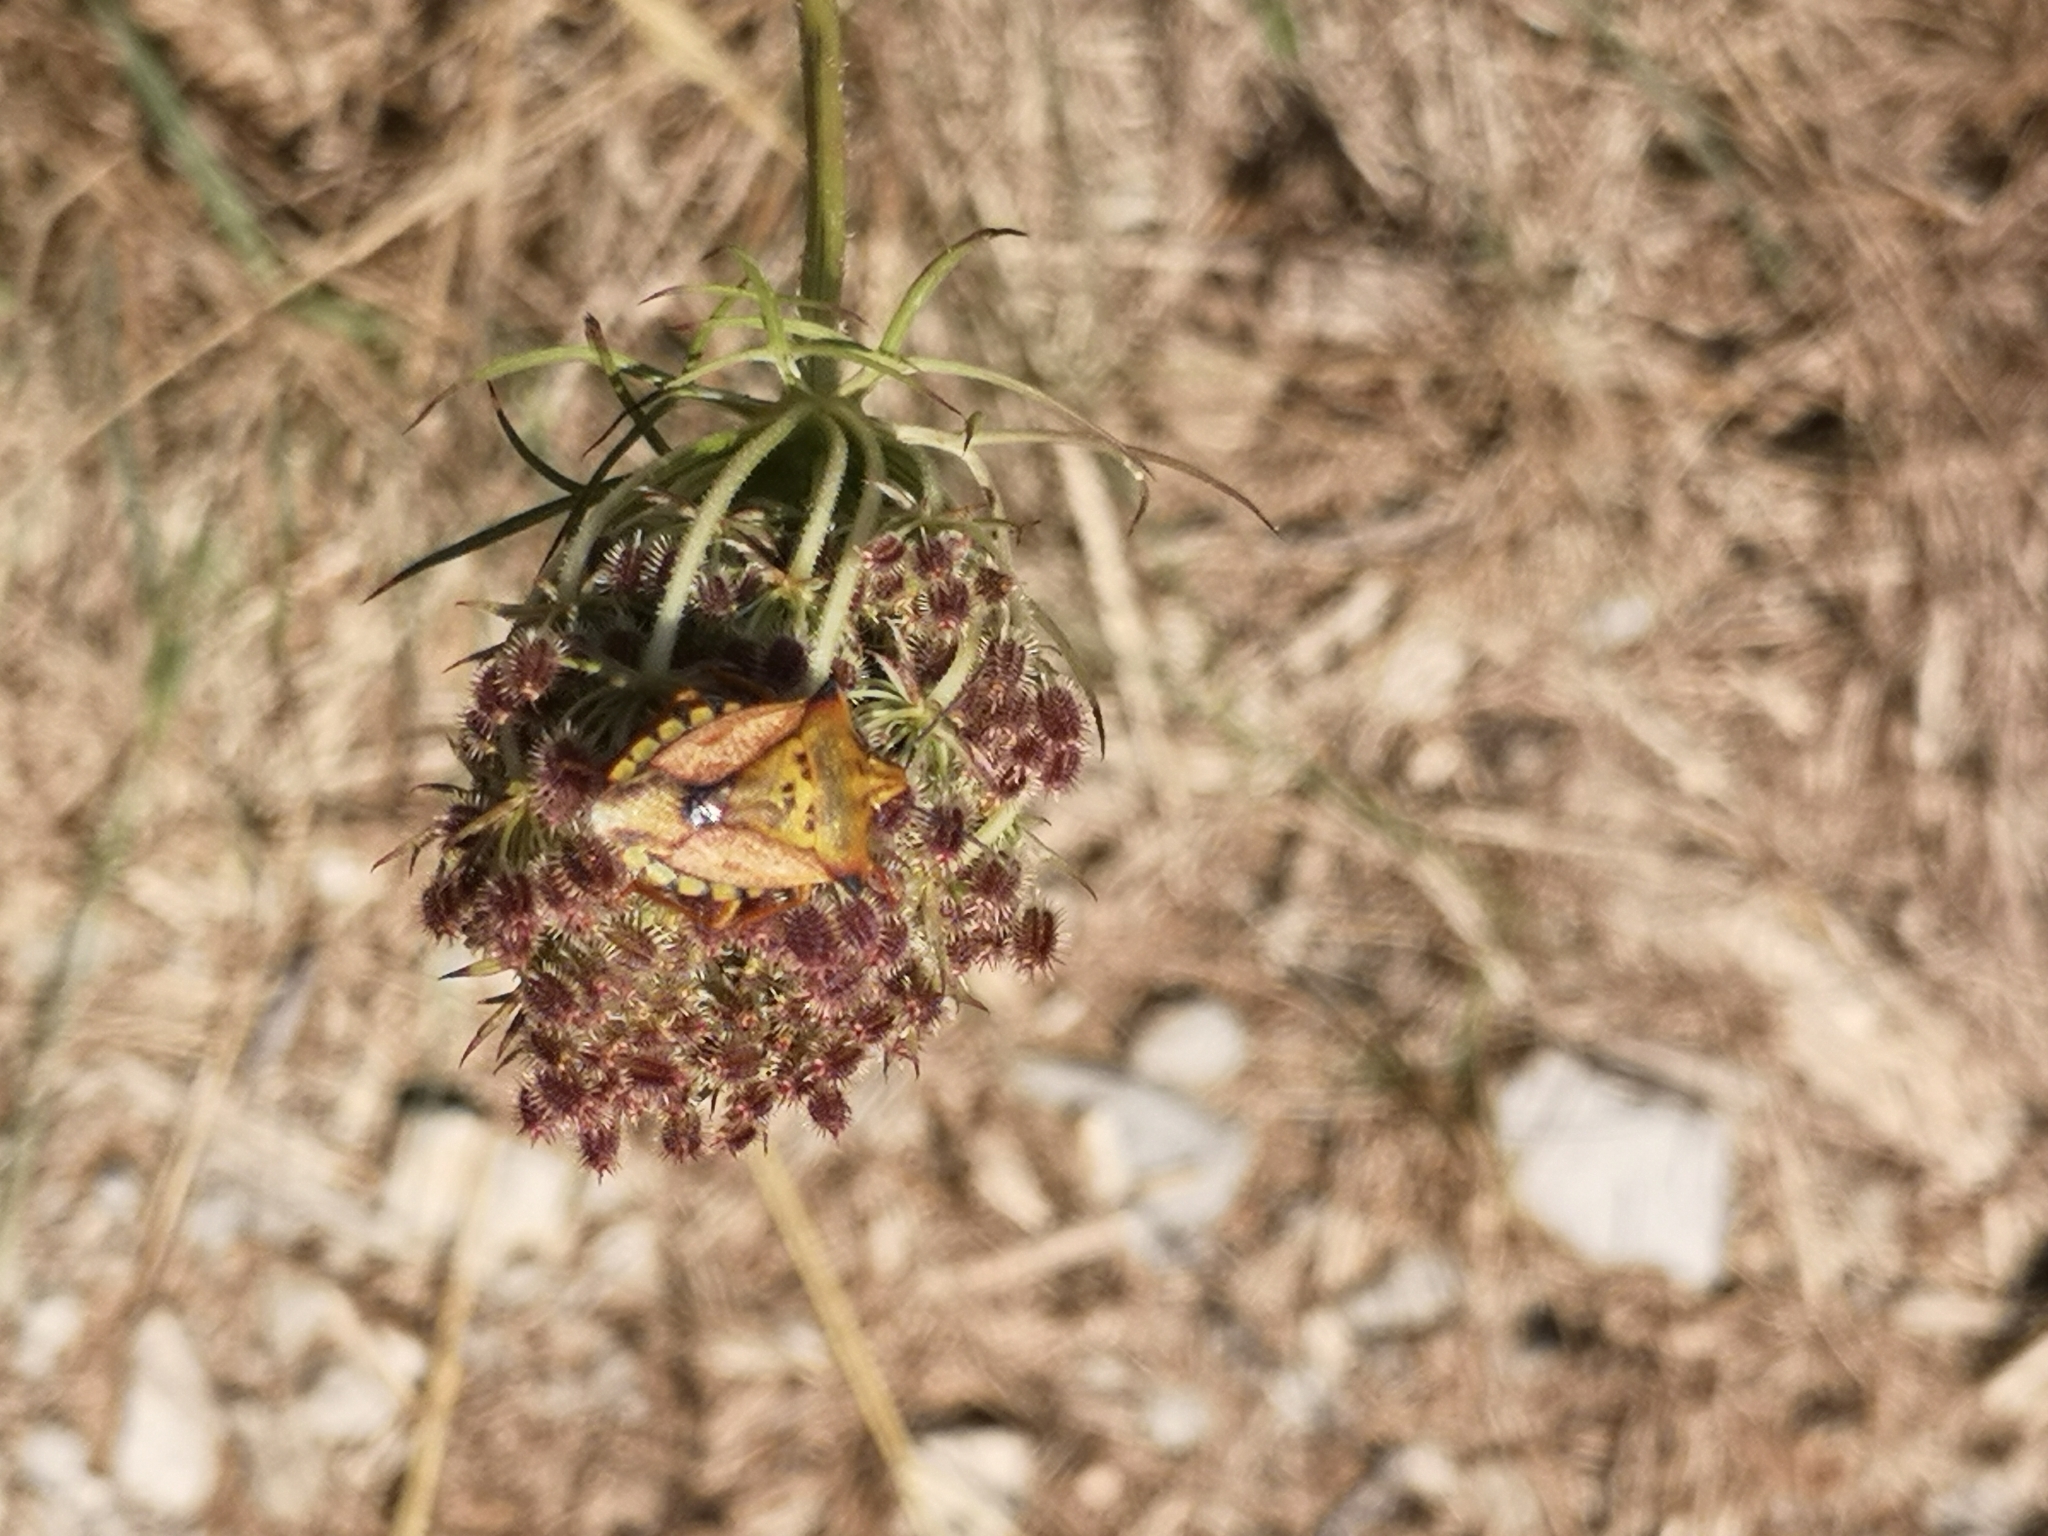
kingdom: Animalia
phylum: Arthropoda
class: Insecta
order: Hemiptera
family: Pentatomidae
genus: Carpocoris
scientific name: Carpocoris mediterraneus
